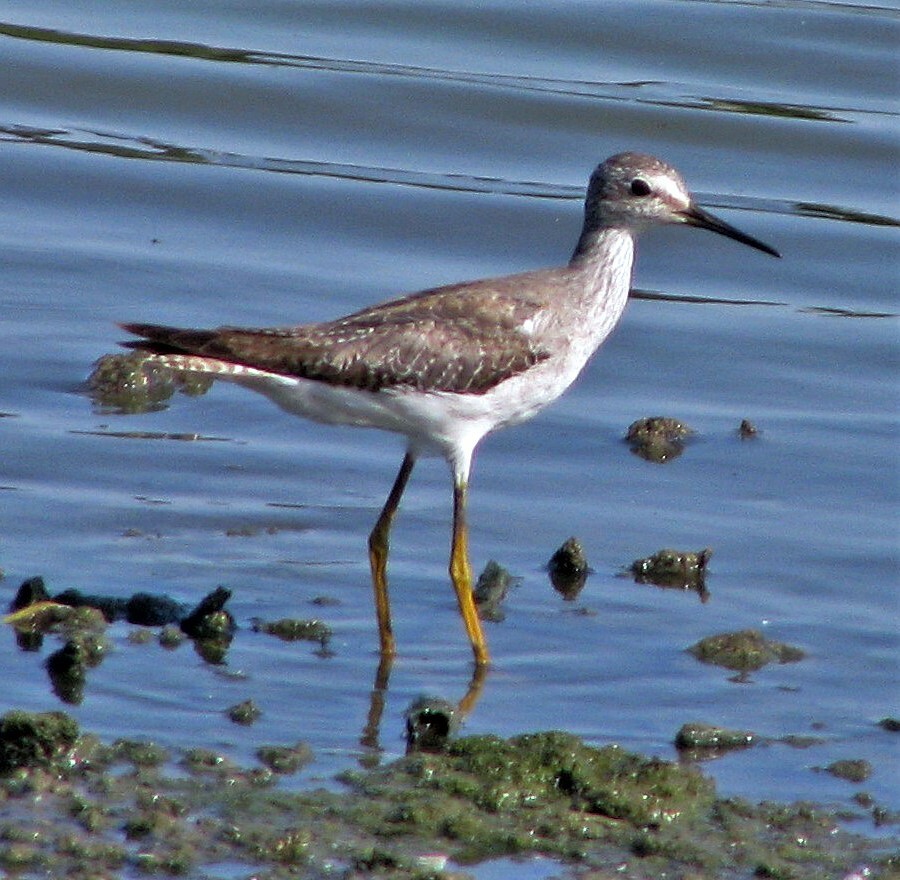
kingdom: Animalia
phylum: Chordata
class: Aves
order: Charadriiformes
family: Scolopacidae
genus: Tringa
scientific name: Tringa flavipes
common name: Lesser yellowlegs
